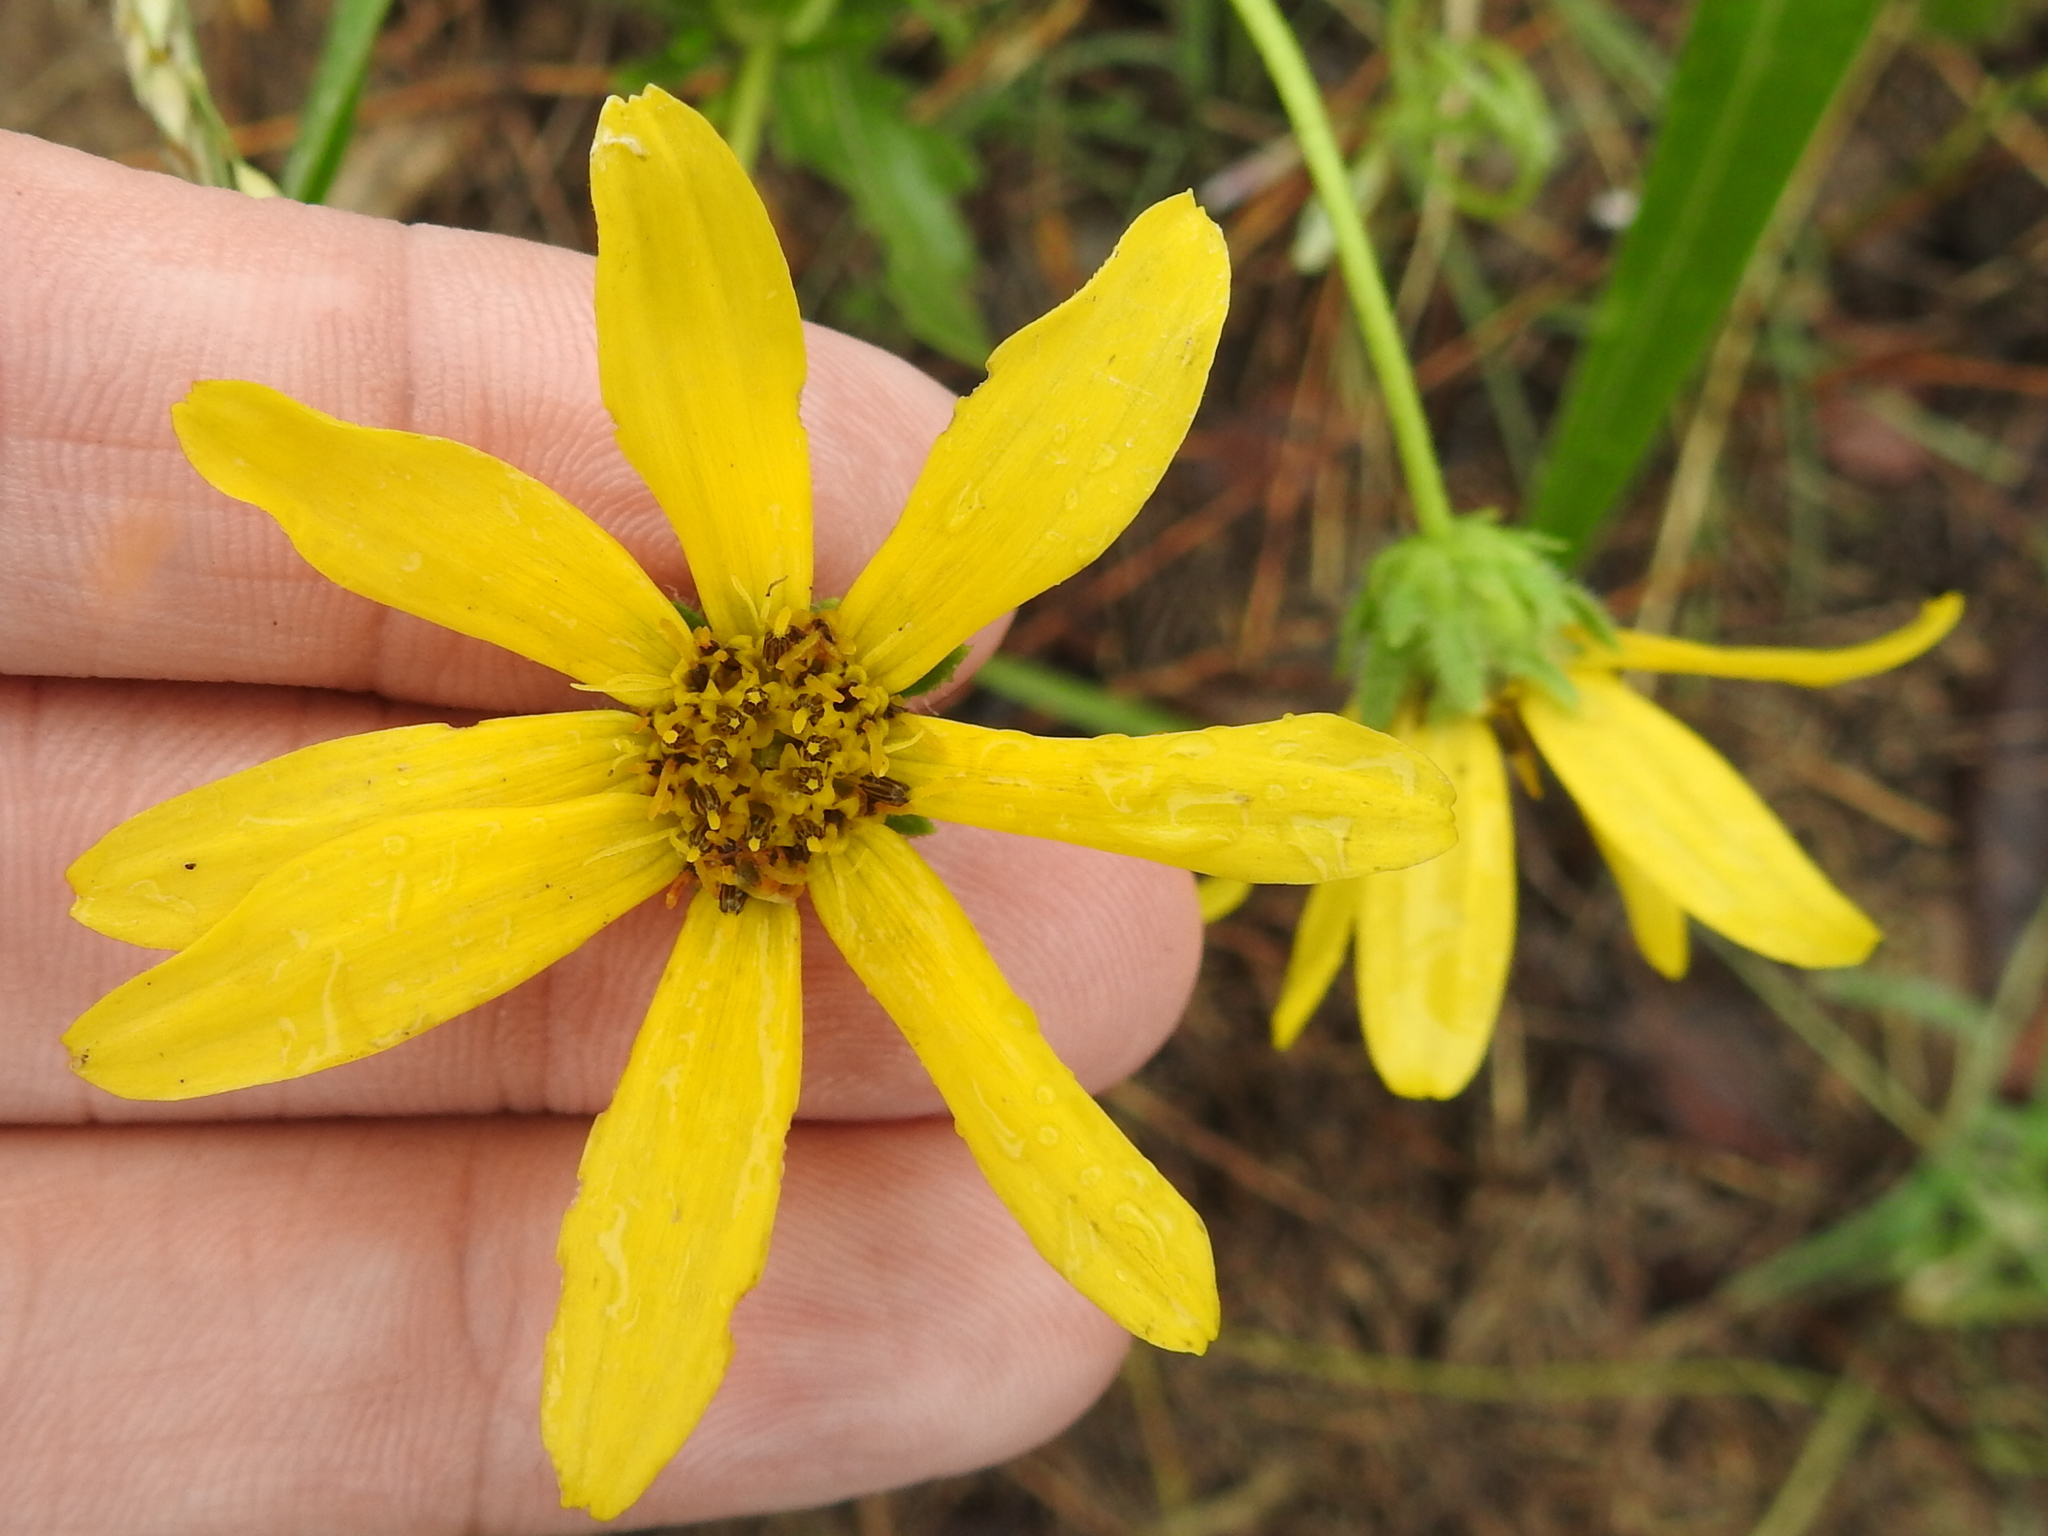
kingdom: Plantae
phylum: Tracheophyta
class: Magnoliopsida
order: Asterales
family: Asteraceae
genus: Engelmannia
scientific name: Engelmannia peristenia
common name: Engelmann's daisy
